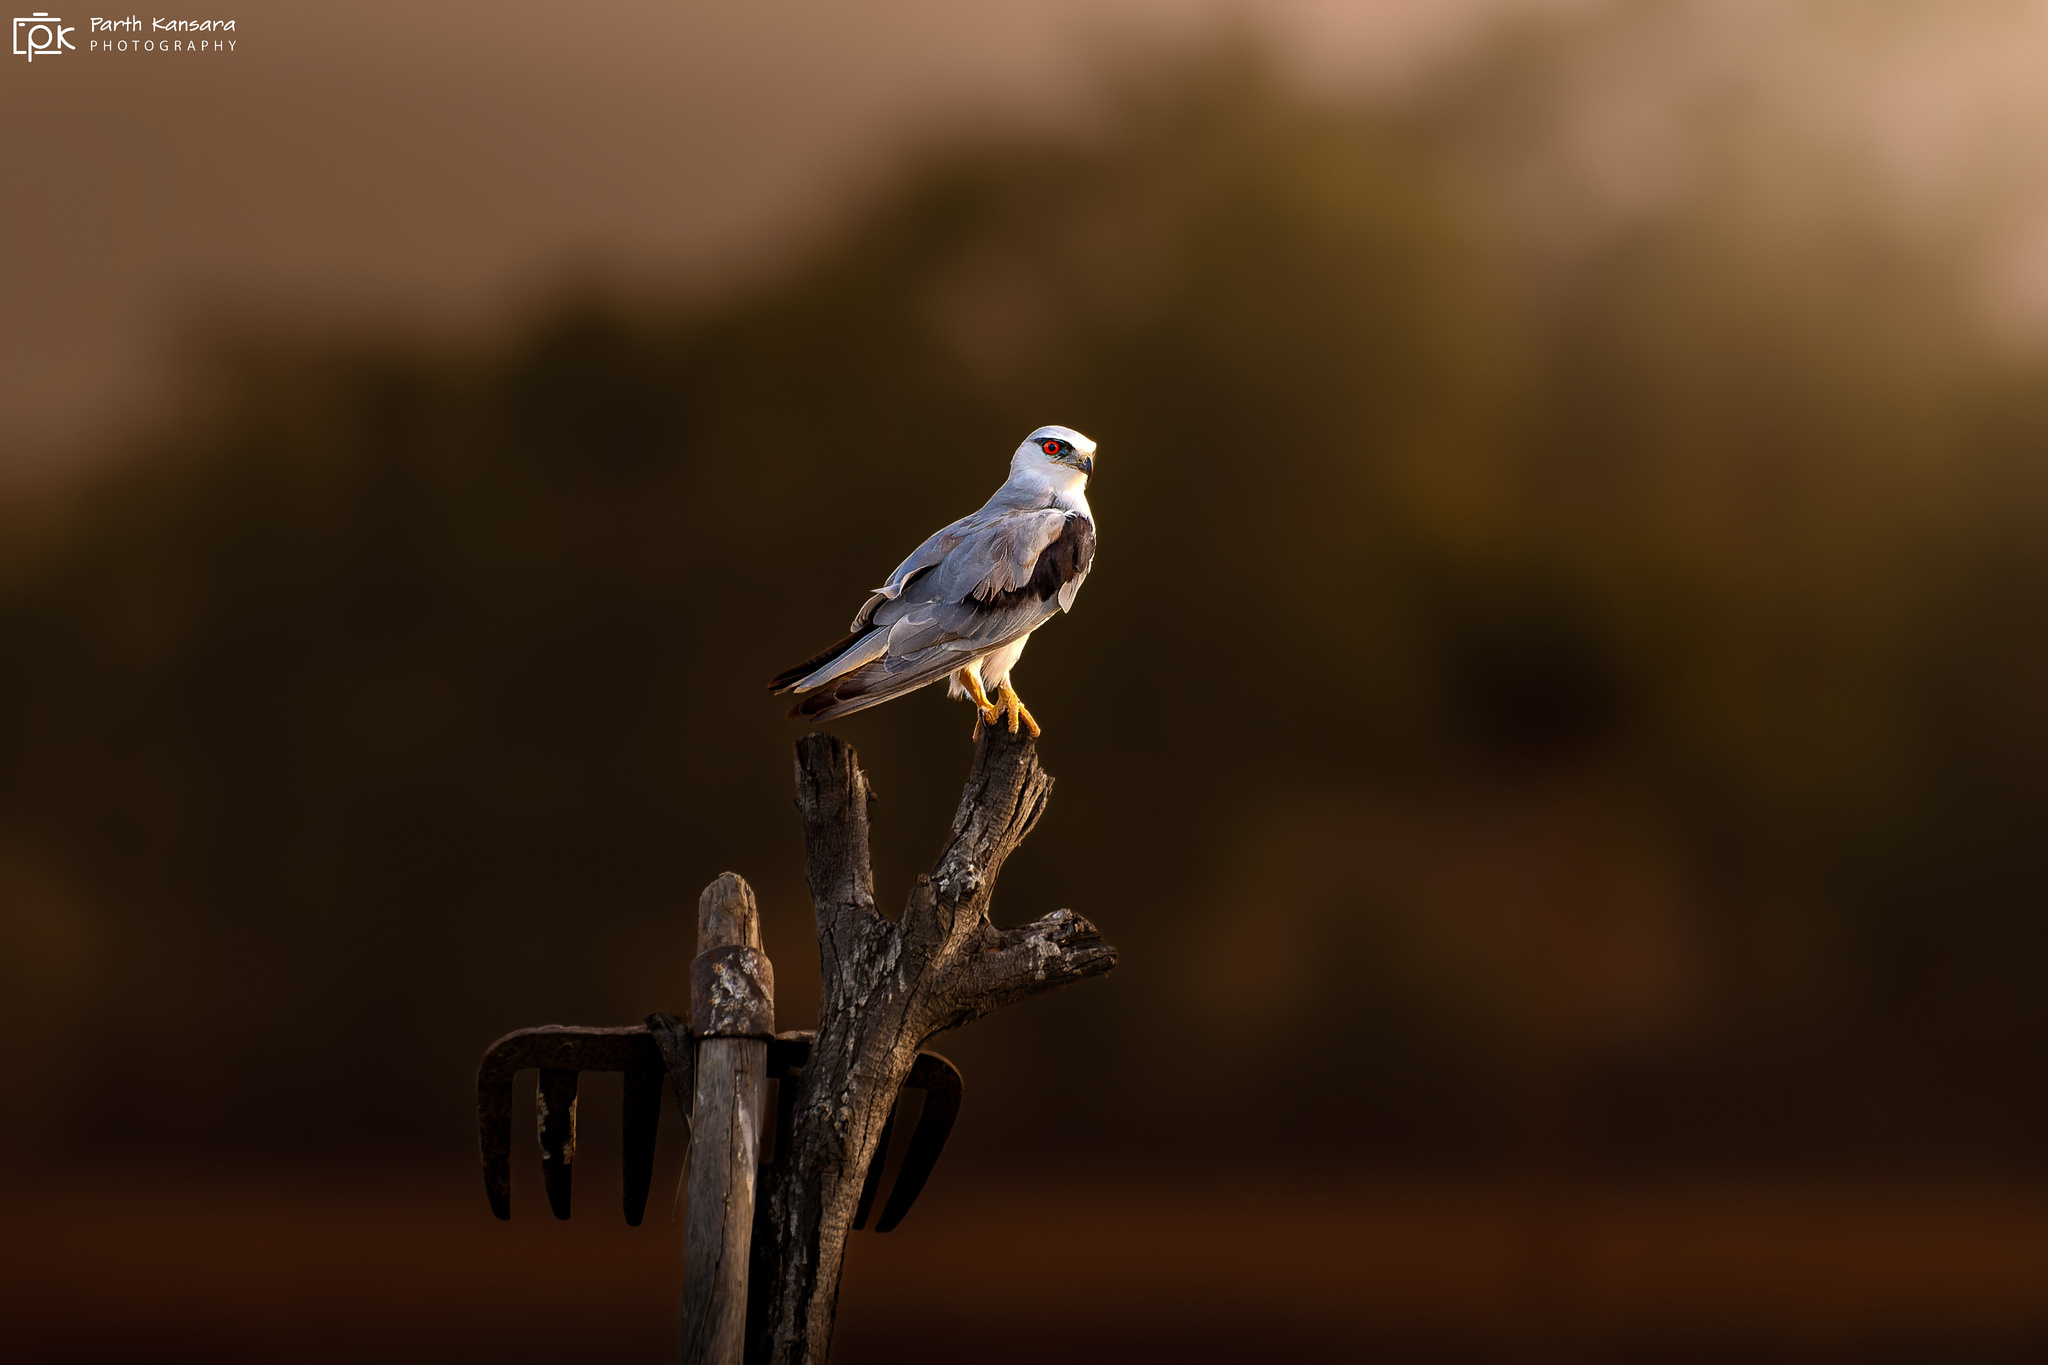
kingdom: Animalia
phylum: Chordata
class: Aves
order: Accipitriformes
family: Accipitridae
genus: Elanus
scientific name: Elanus caeruleus
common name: Black-winged kite
